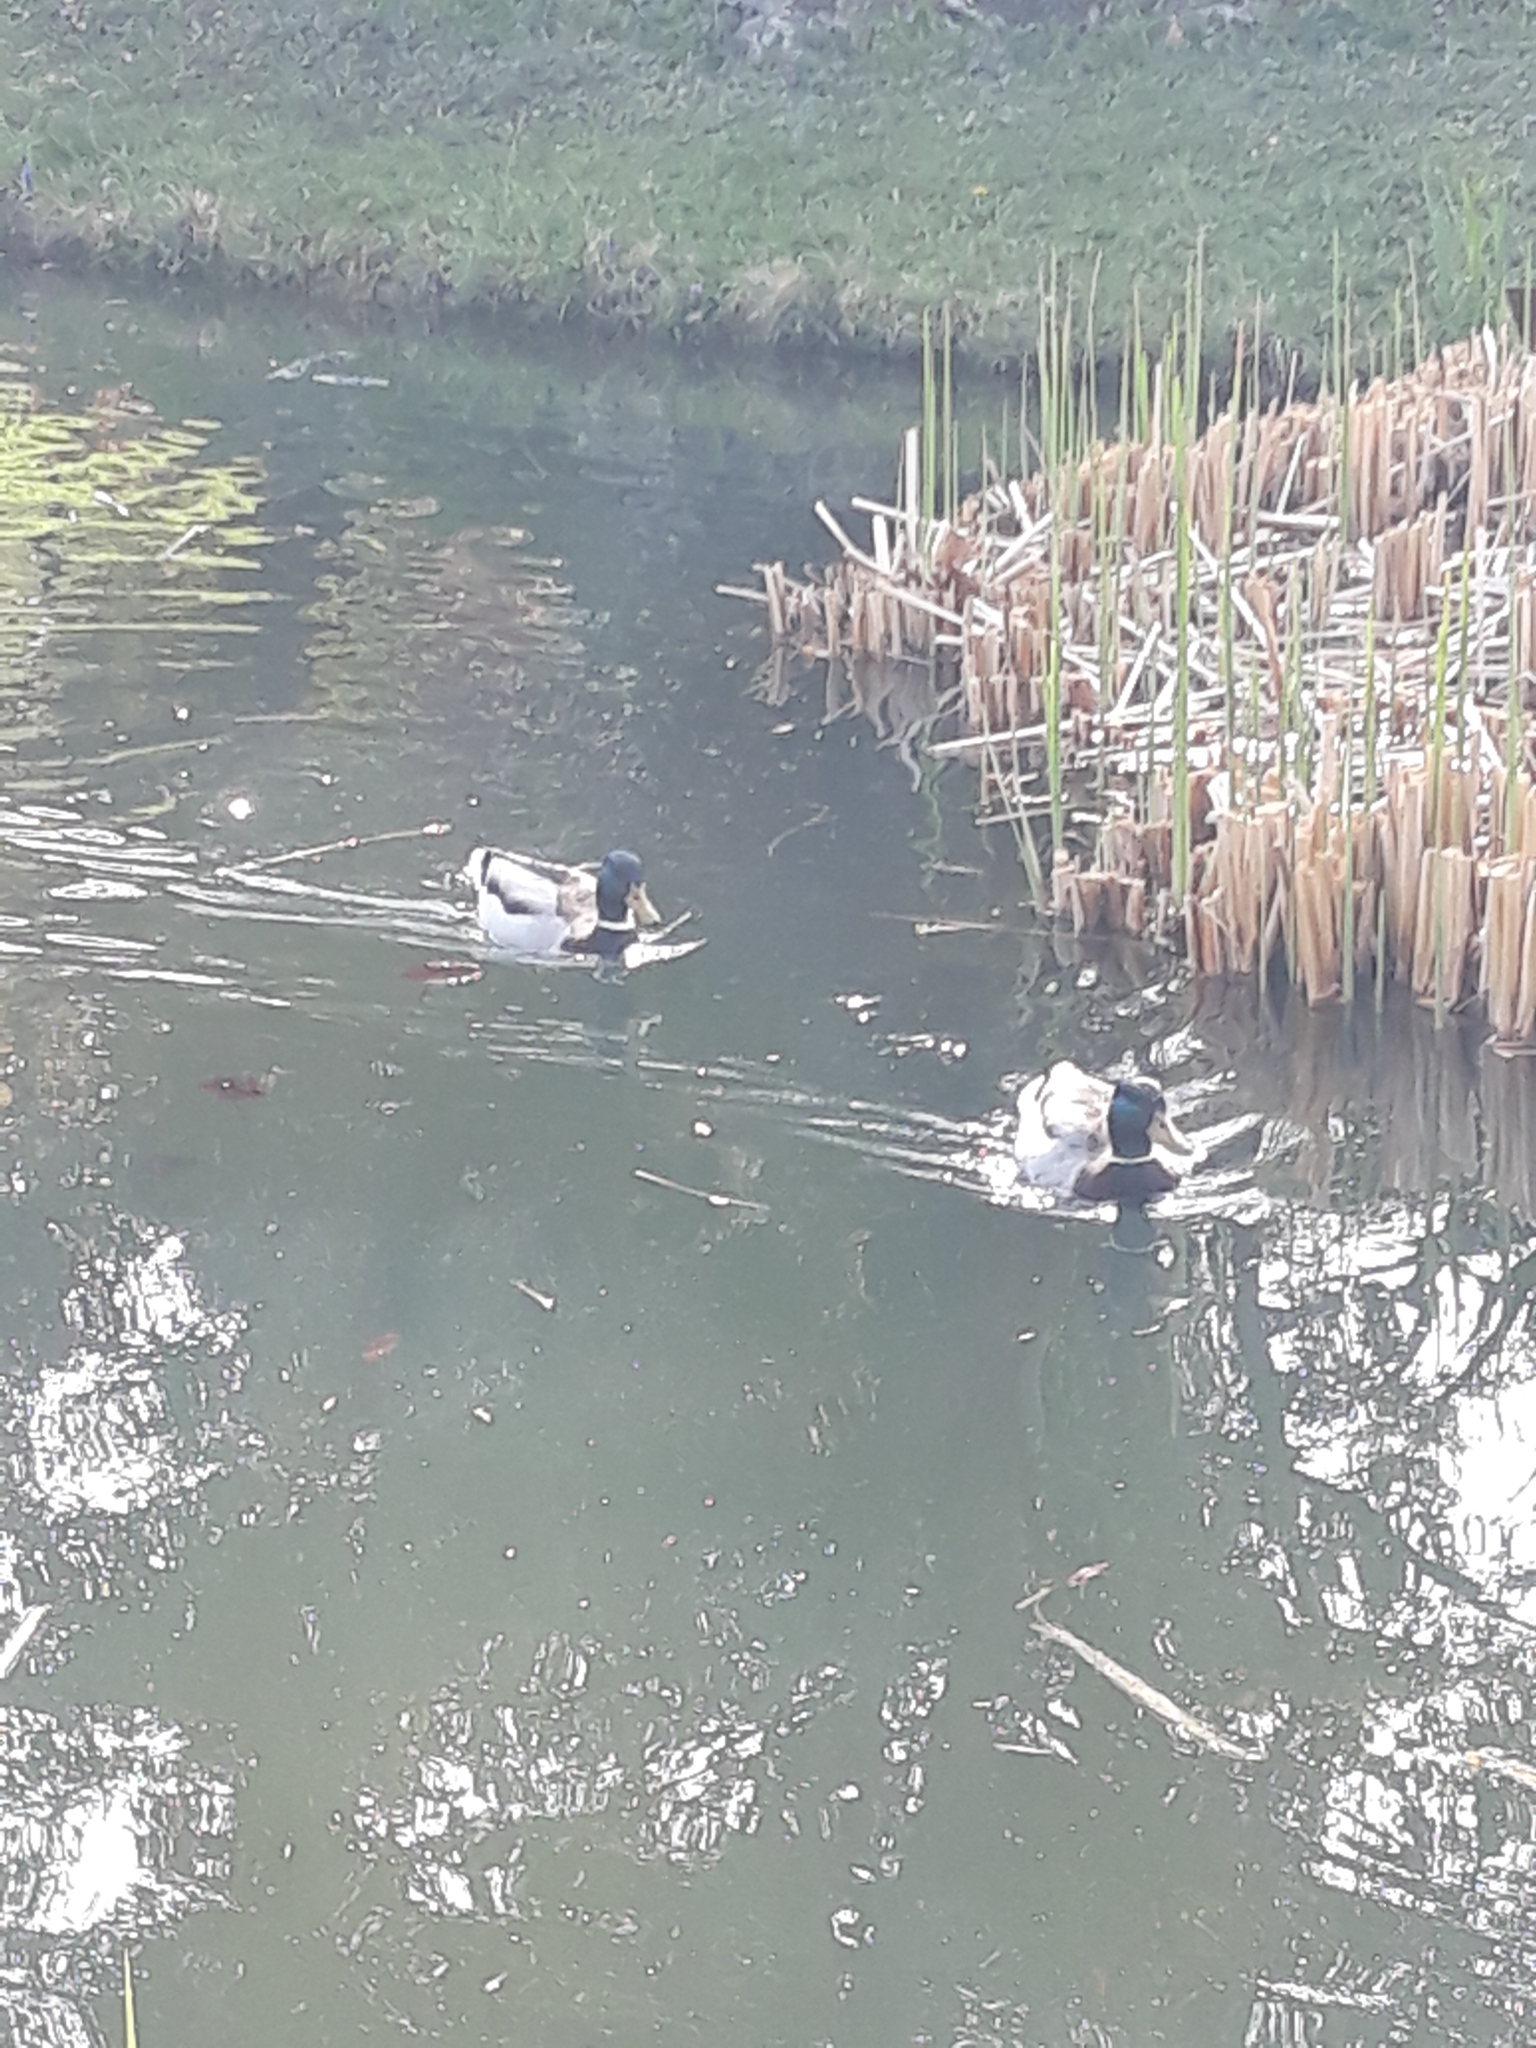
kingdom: Animalia
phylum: Chordata
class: Aves
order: Anseriformes
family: Anatidae
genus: Anas
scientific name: Anas platyrhynchos
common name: Mallard
